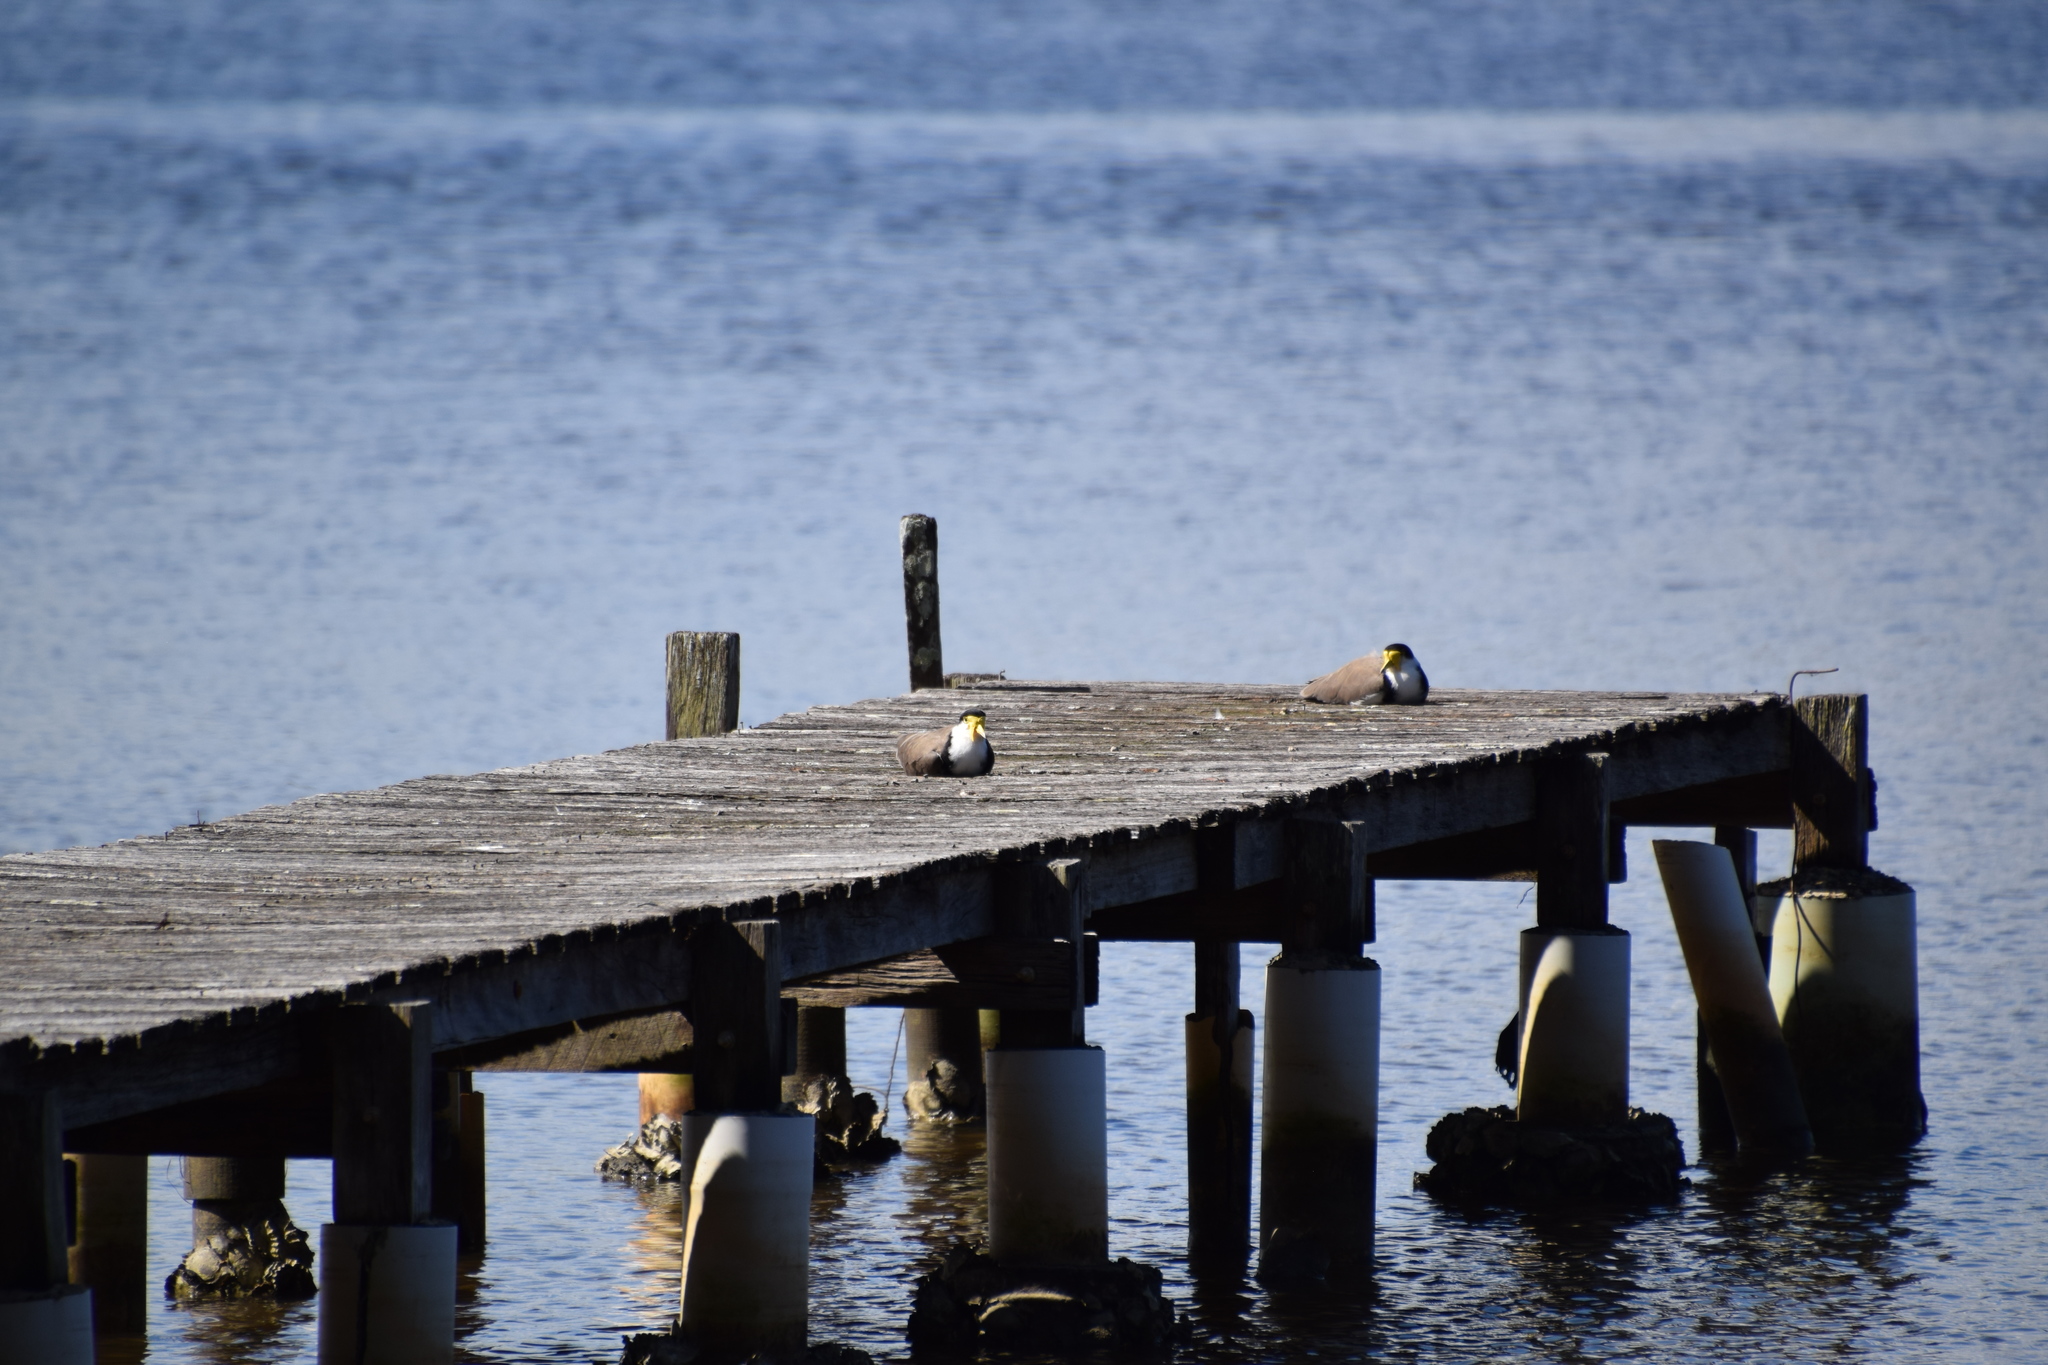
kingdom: Animalia
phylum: Chordata
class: Aves
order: Charadriiformes
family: Charadriidae
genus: Vanellus
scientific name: Vanellus miles
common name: Masked lapwing
